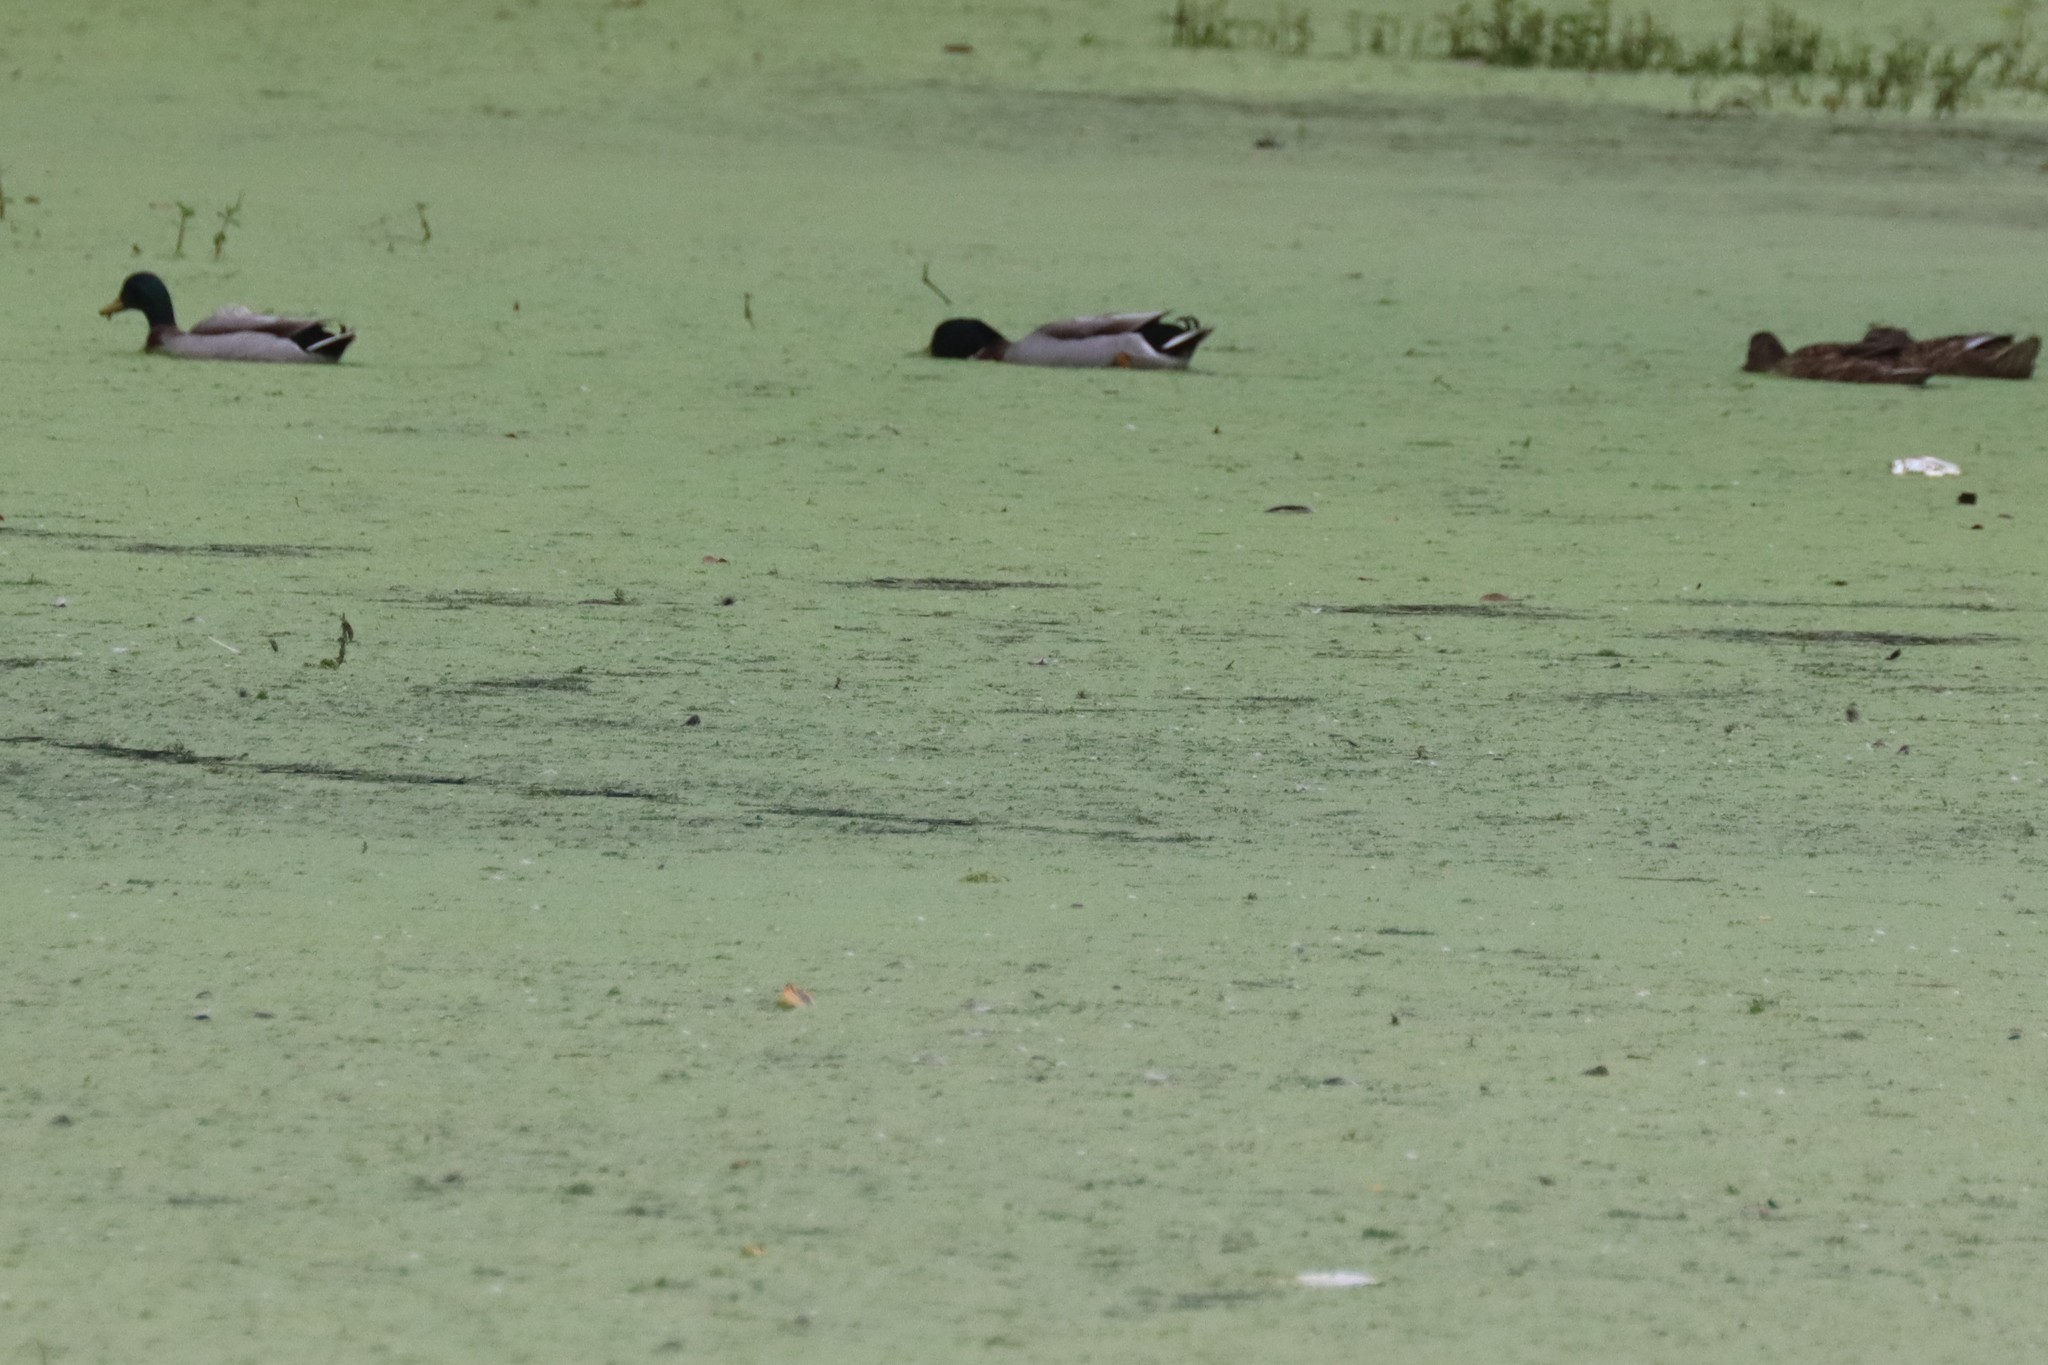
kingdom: Animalia
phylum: Chordata
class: Aves
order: Anseriformes
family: Anatidae
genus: Anas
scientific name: Anas platyrhynchos
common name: Mallard
